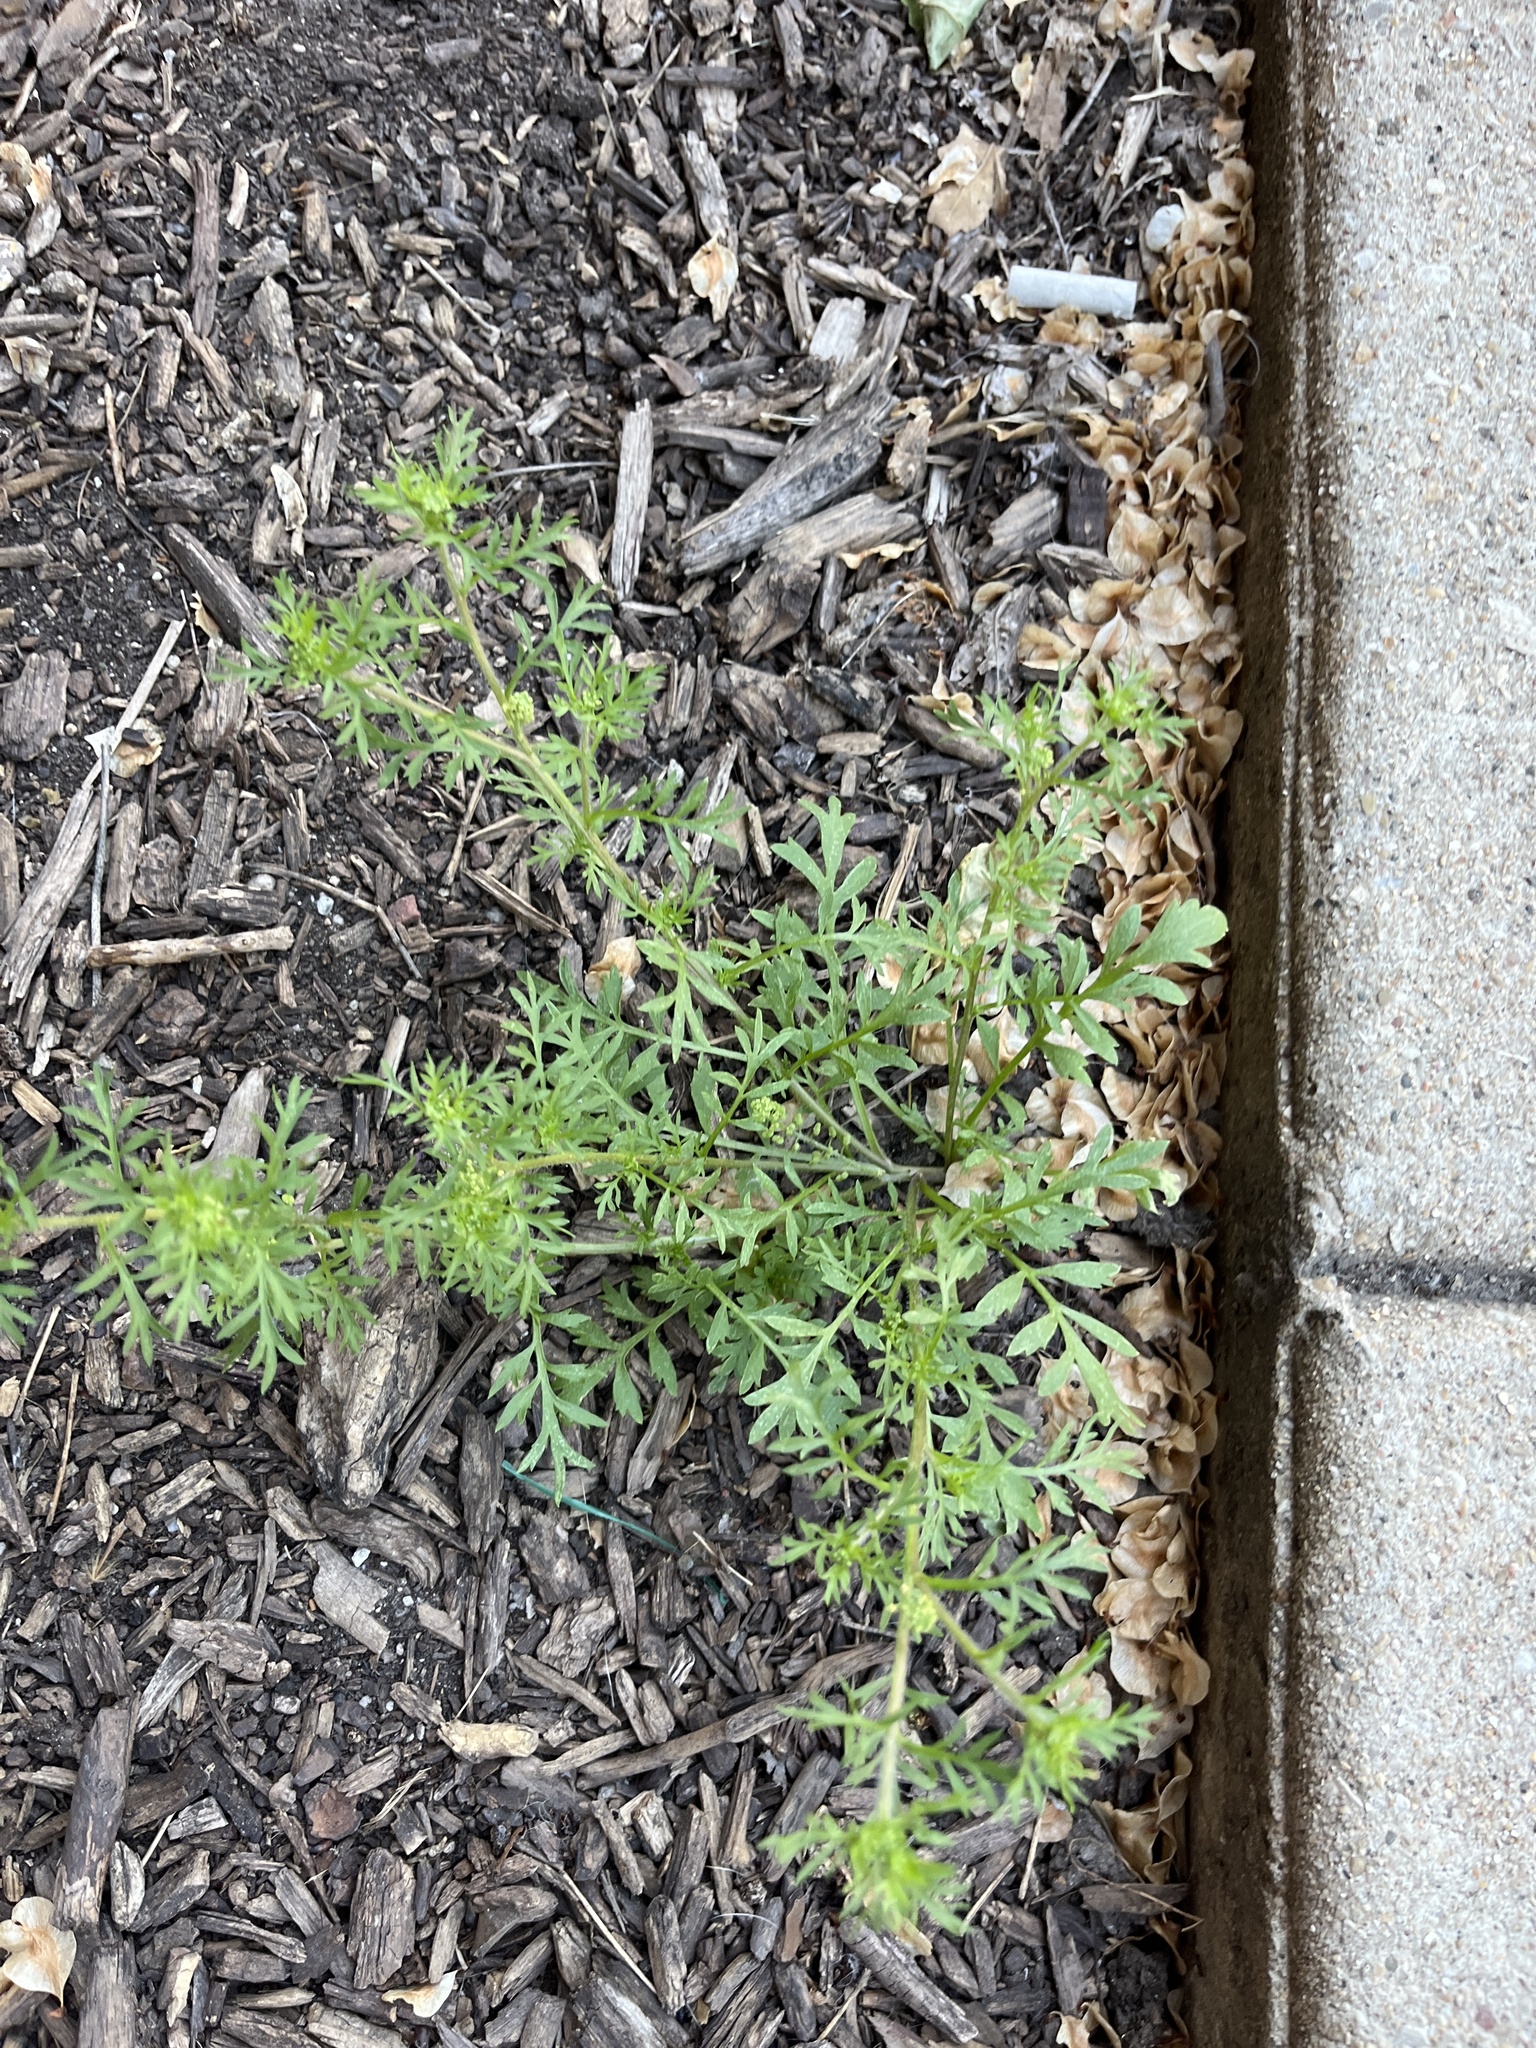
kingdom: Plantae
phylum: Tracheophyta
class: Magnoliopsida
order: Brassicales
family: Brassicaceae
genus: Lepidium
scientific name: Lepidium didymum
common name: Lesser swinecress
